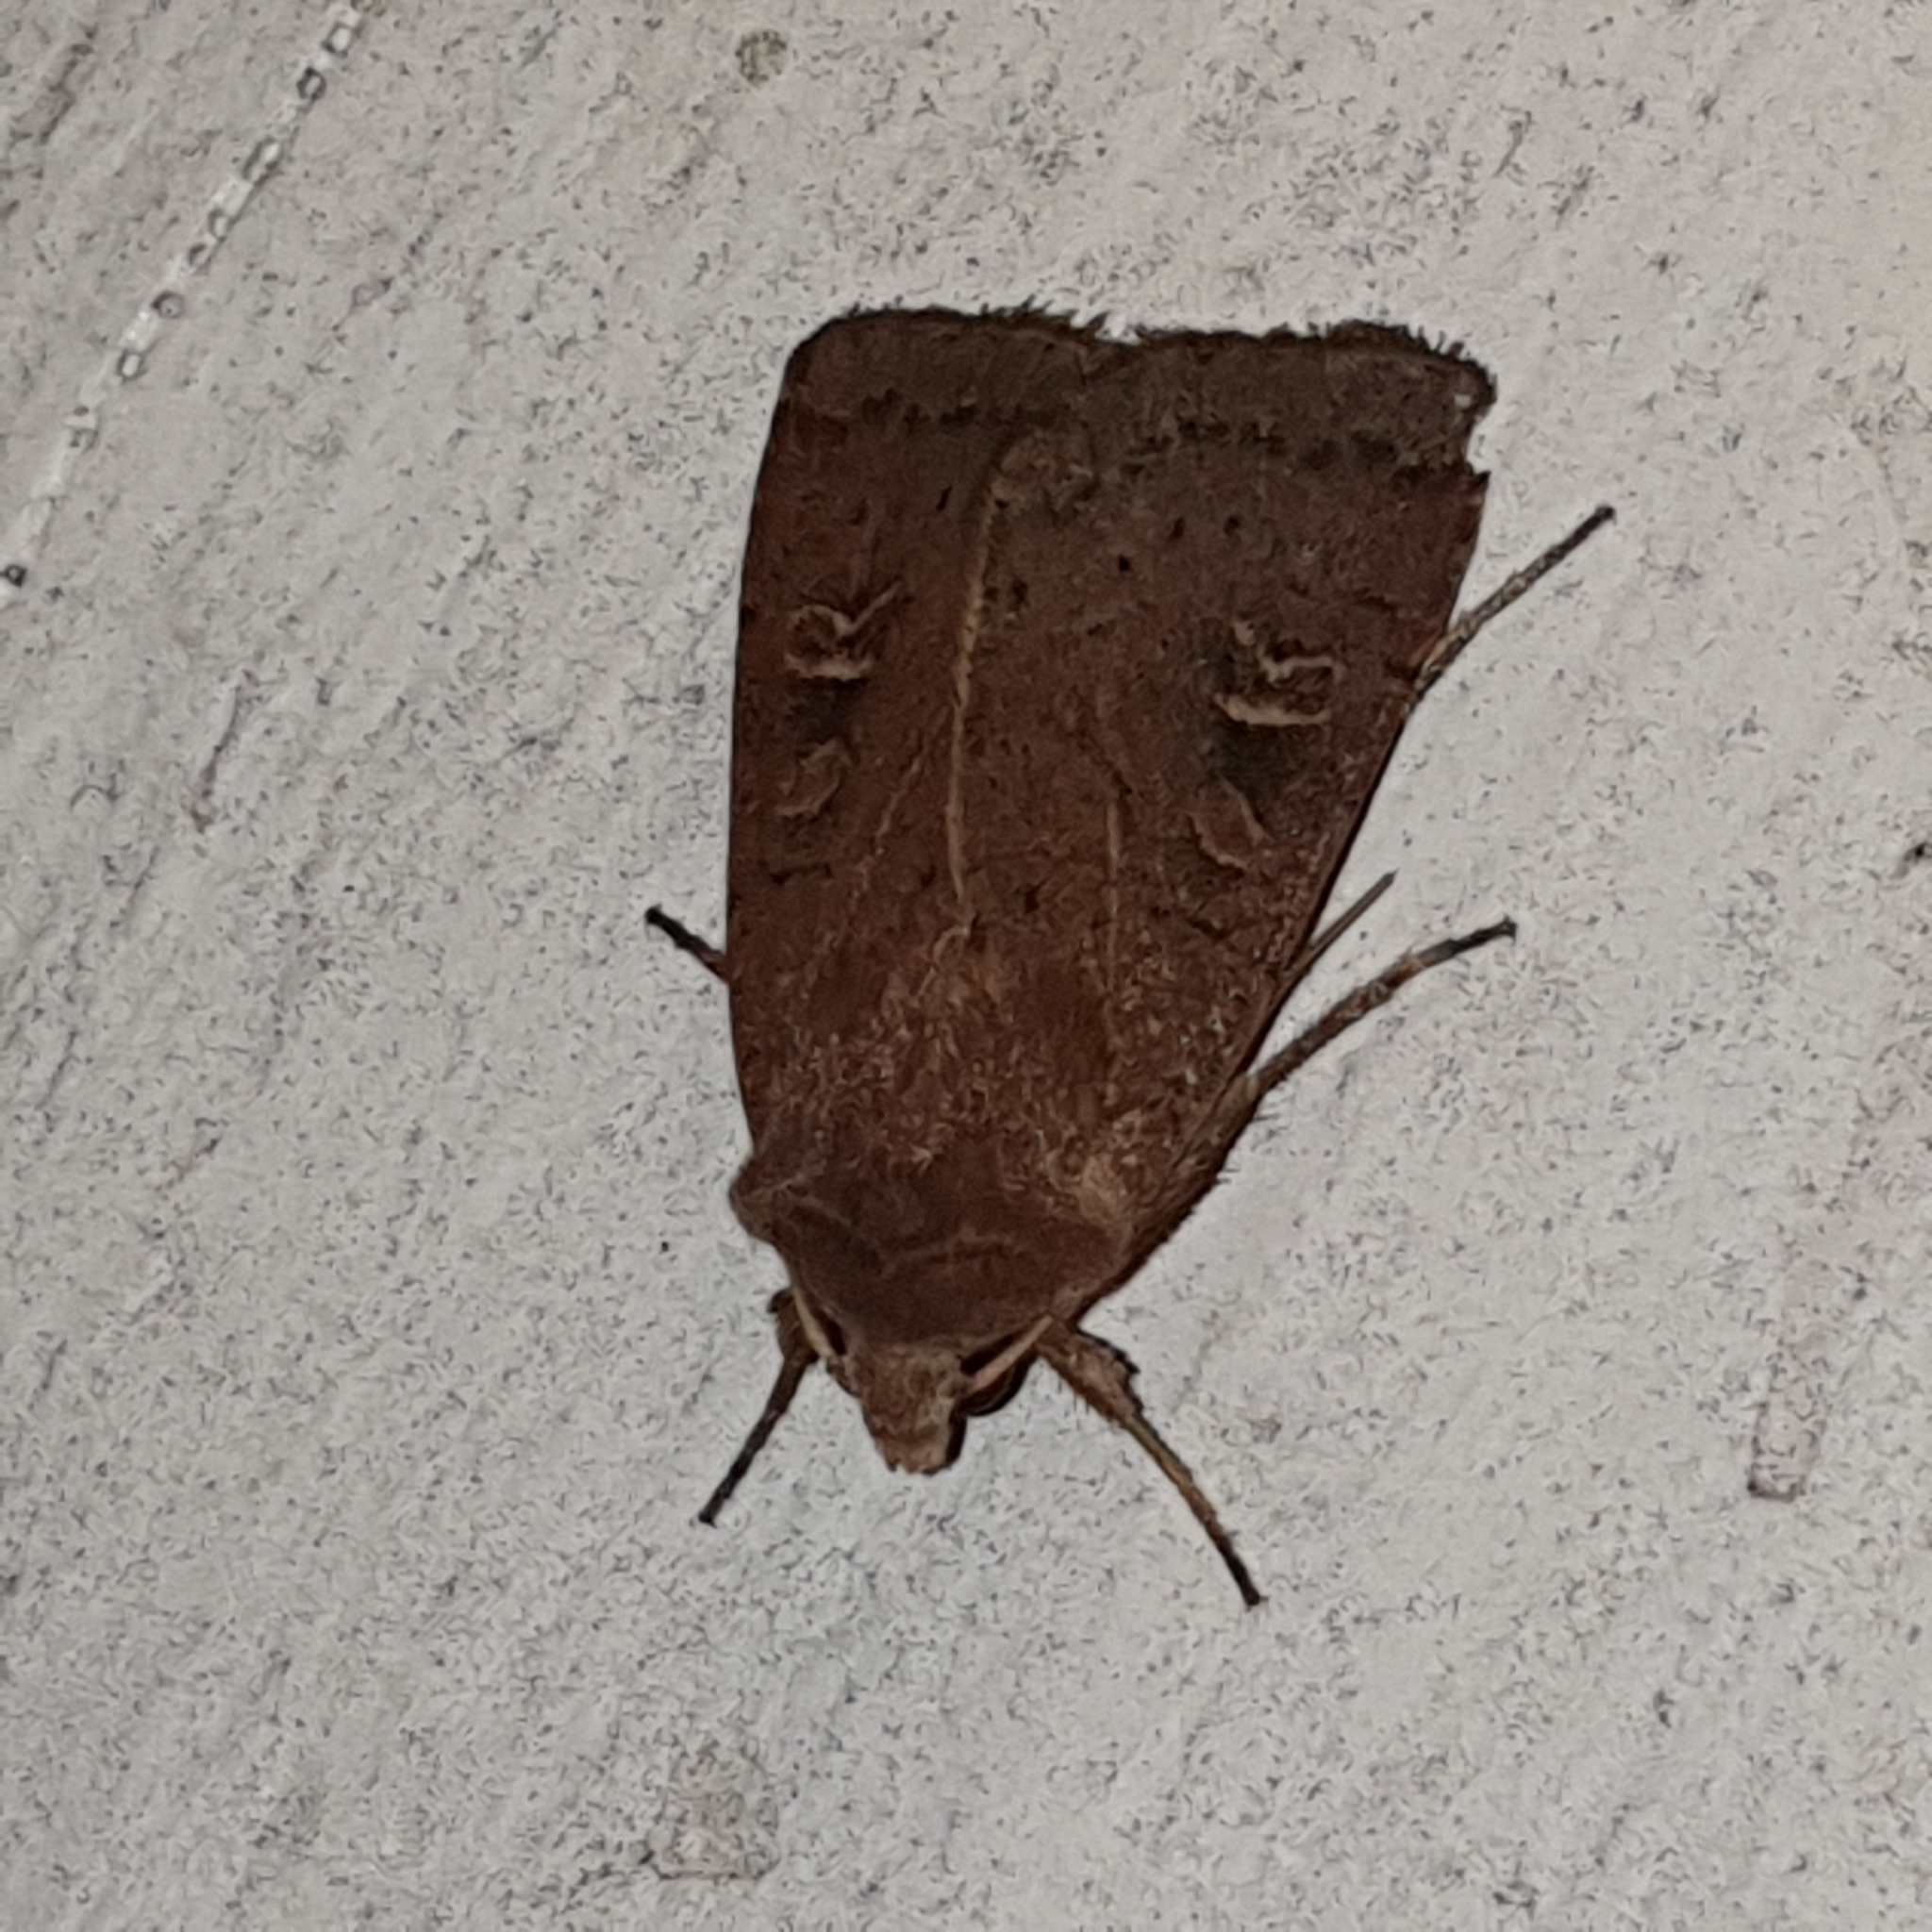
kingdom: Animalia
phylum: Arthropoda
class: Insecta
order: Lepidoptera
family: Noctuidae
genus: Xestia
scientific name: Xestia xanthographa
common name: Square-spot rustic
